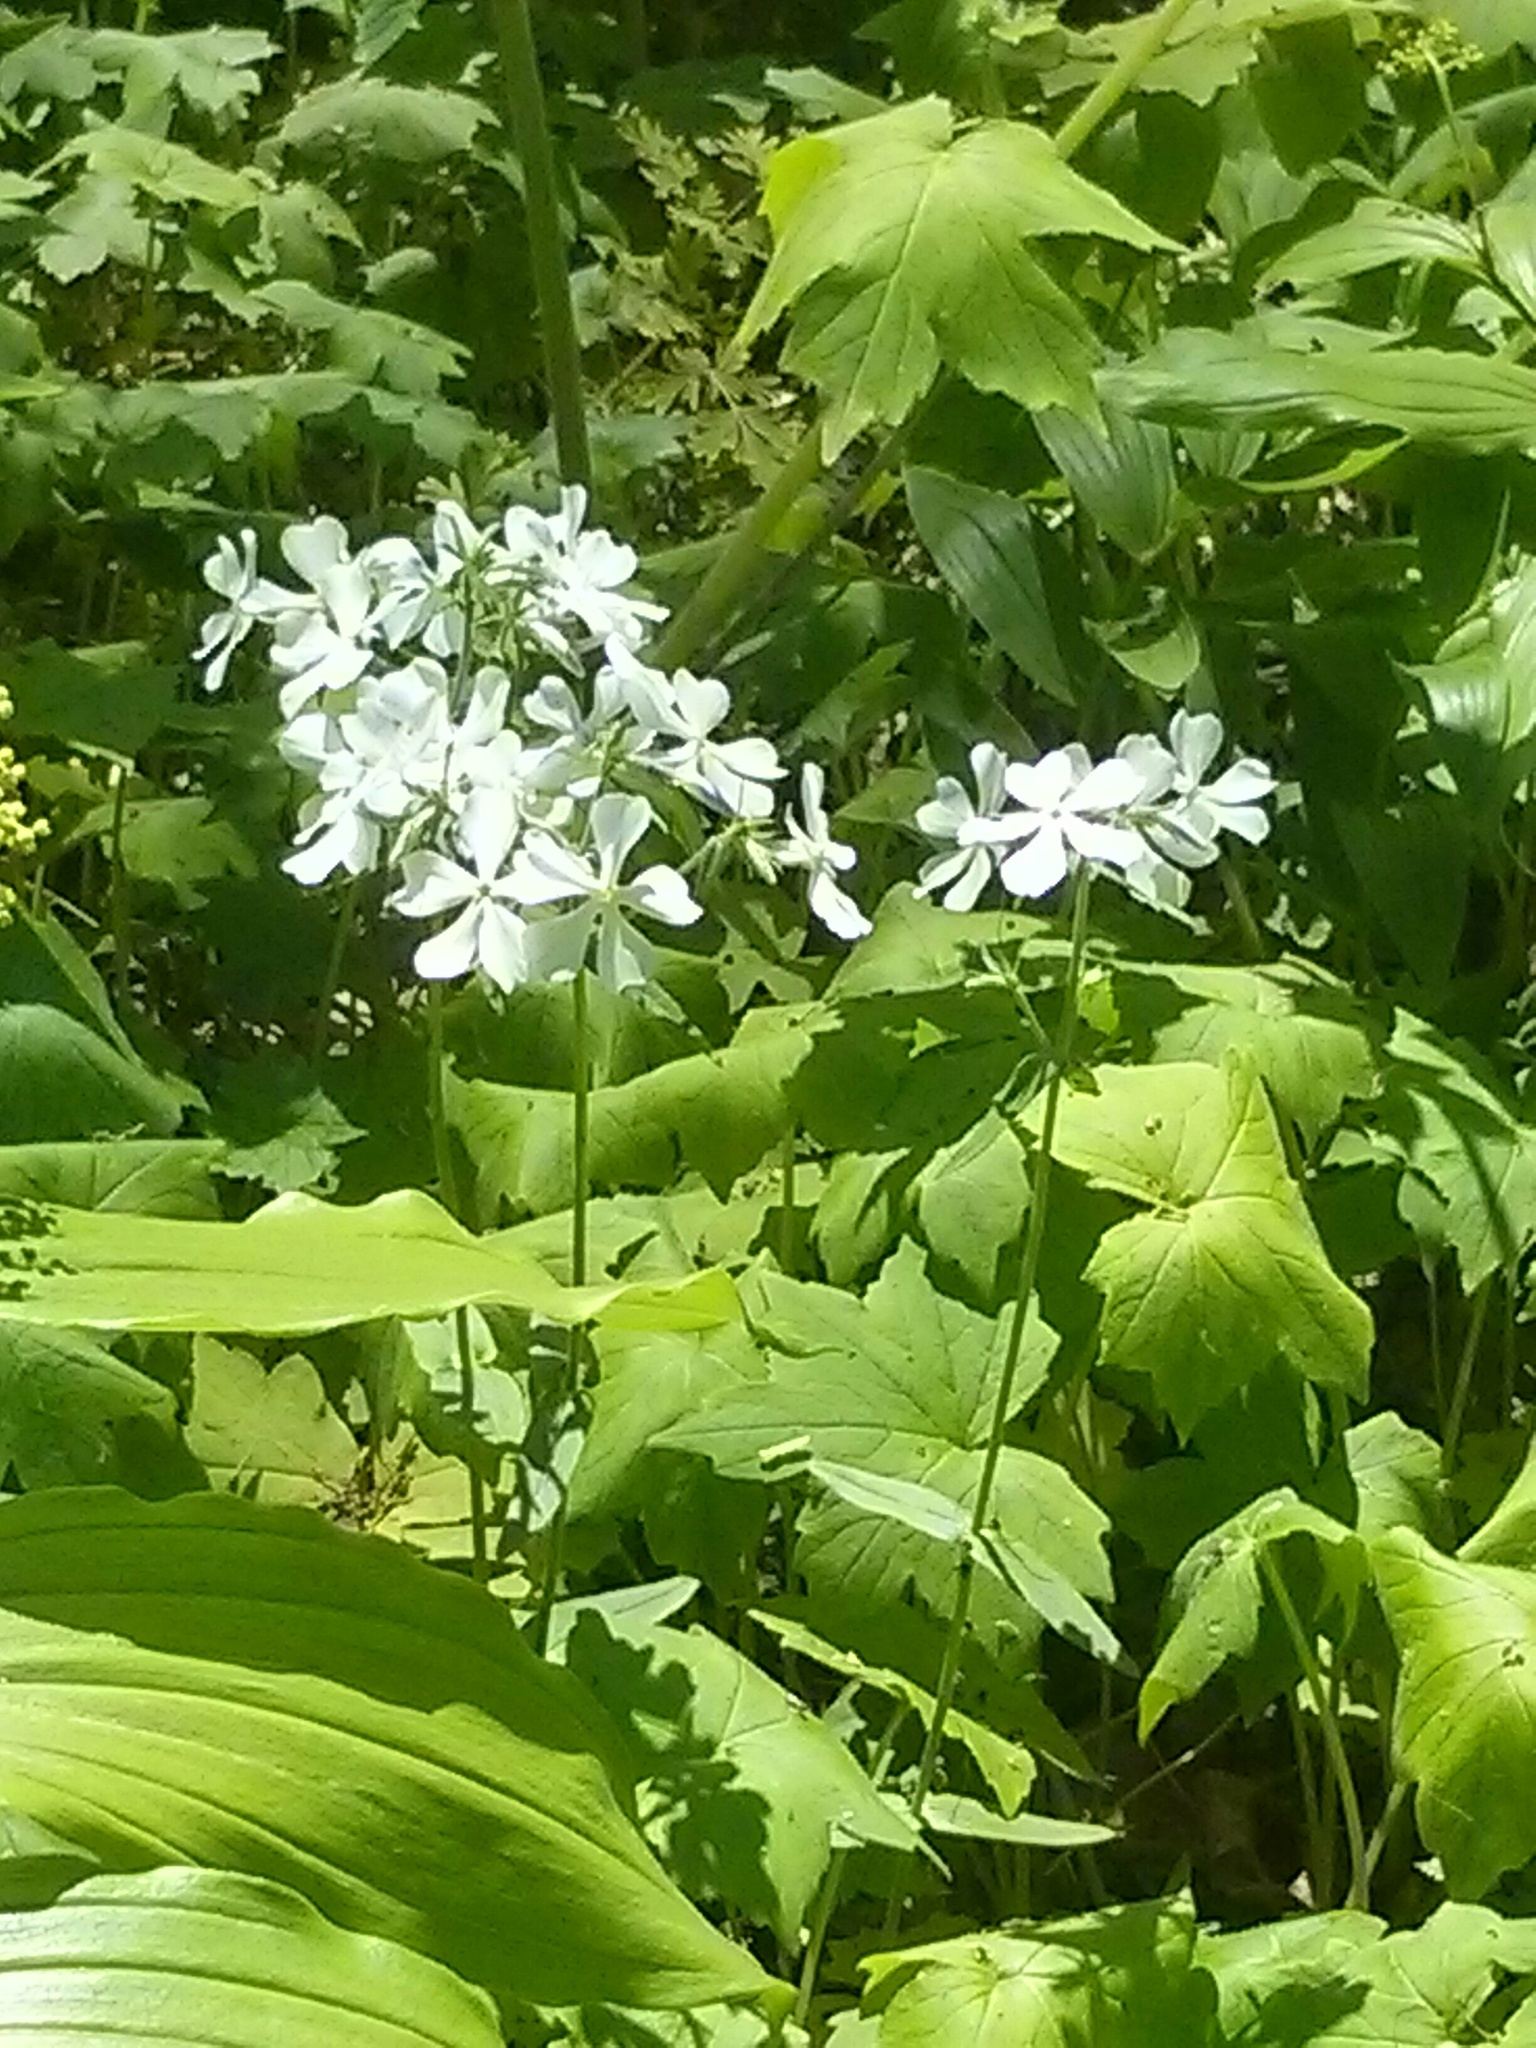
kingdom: Plantae
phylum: Tracheophyta
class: Magnoliopsida
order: Ericales
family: Polemoniaceae
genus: Phlox
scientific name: Phlox divaricata
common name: Blue phlox
